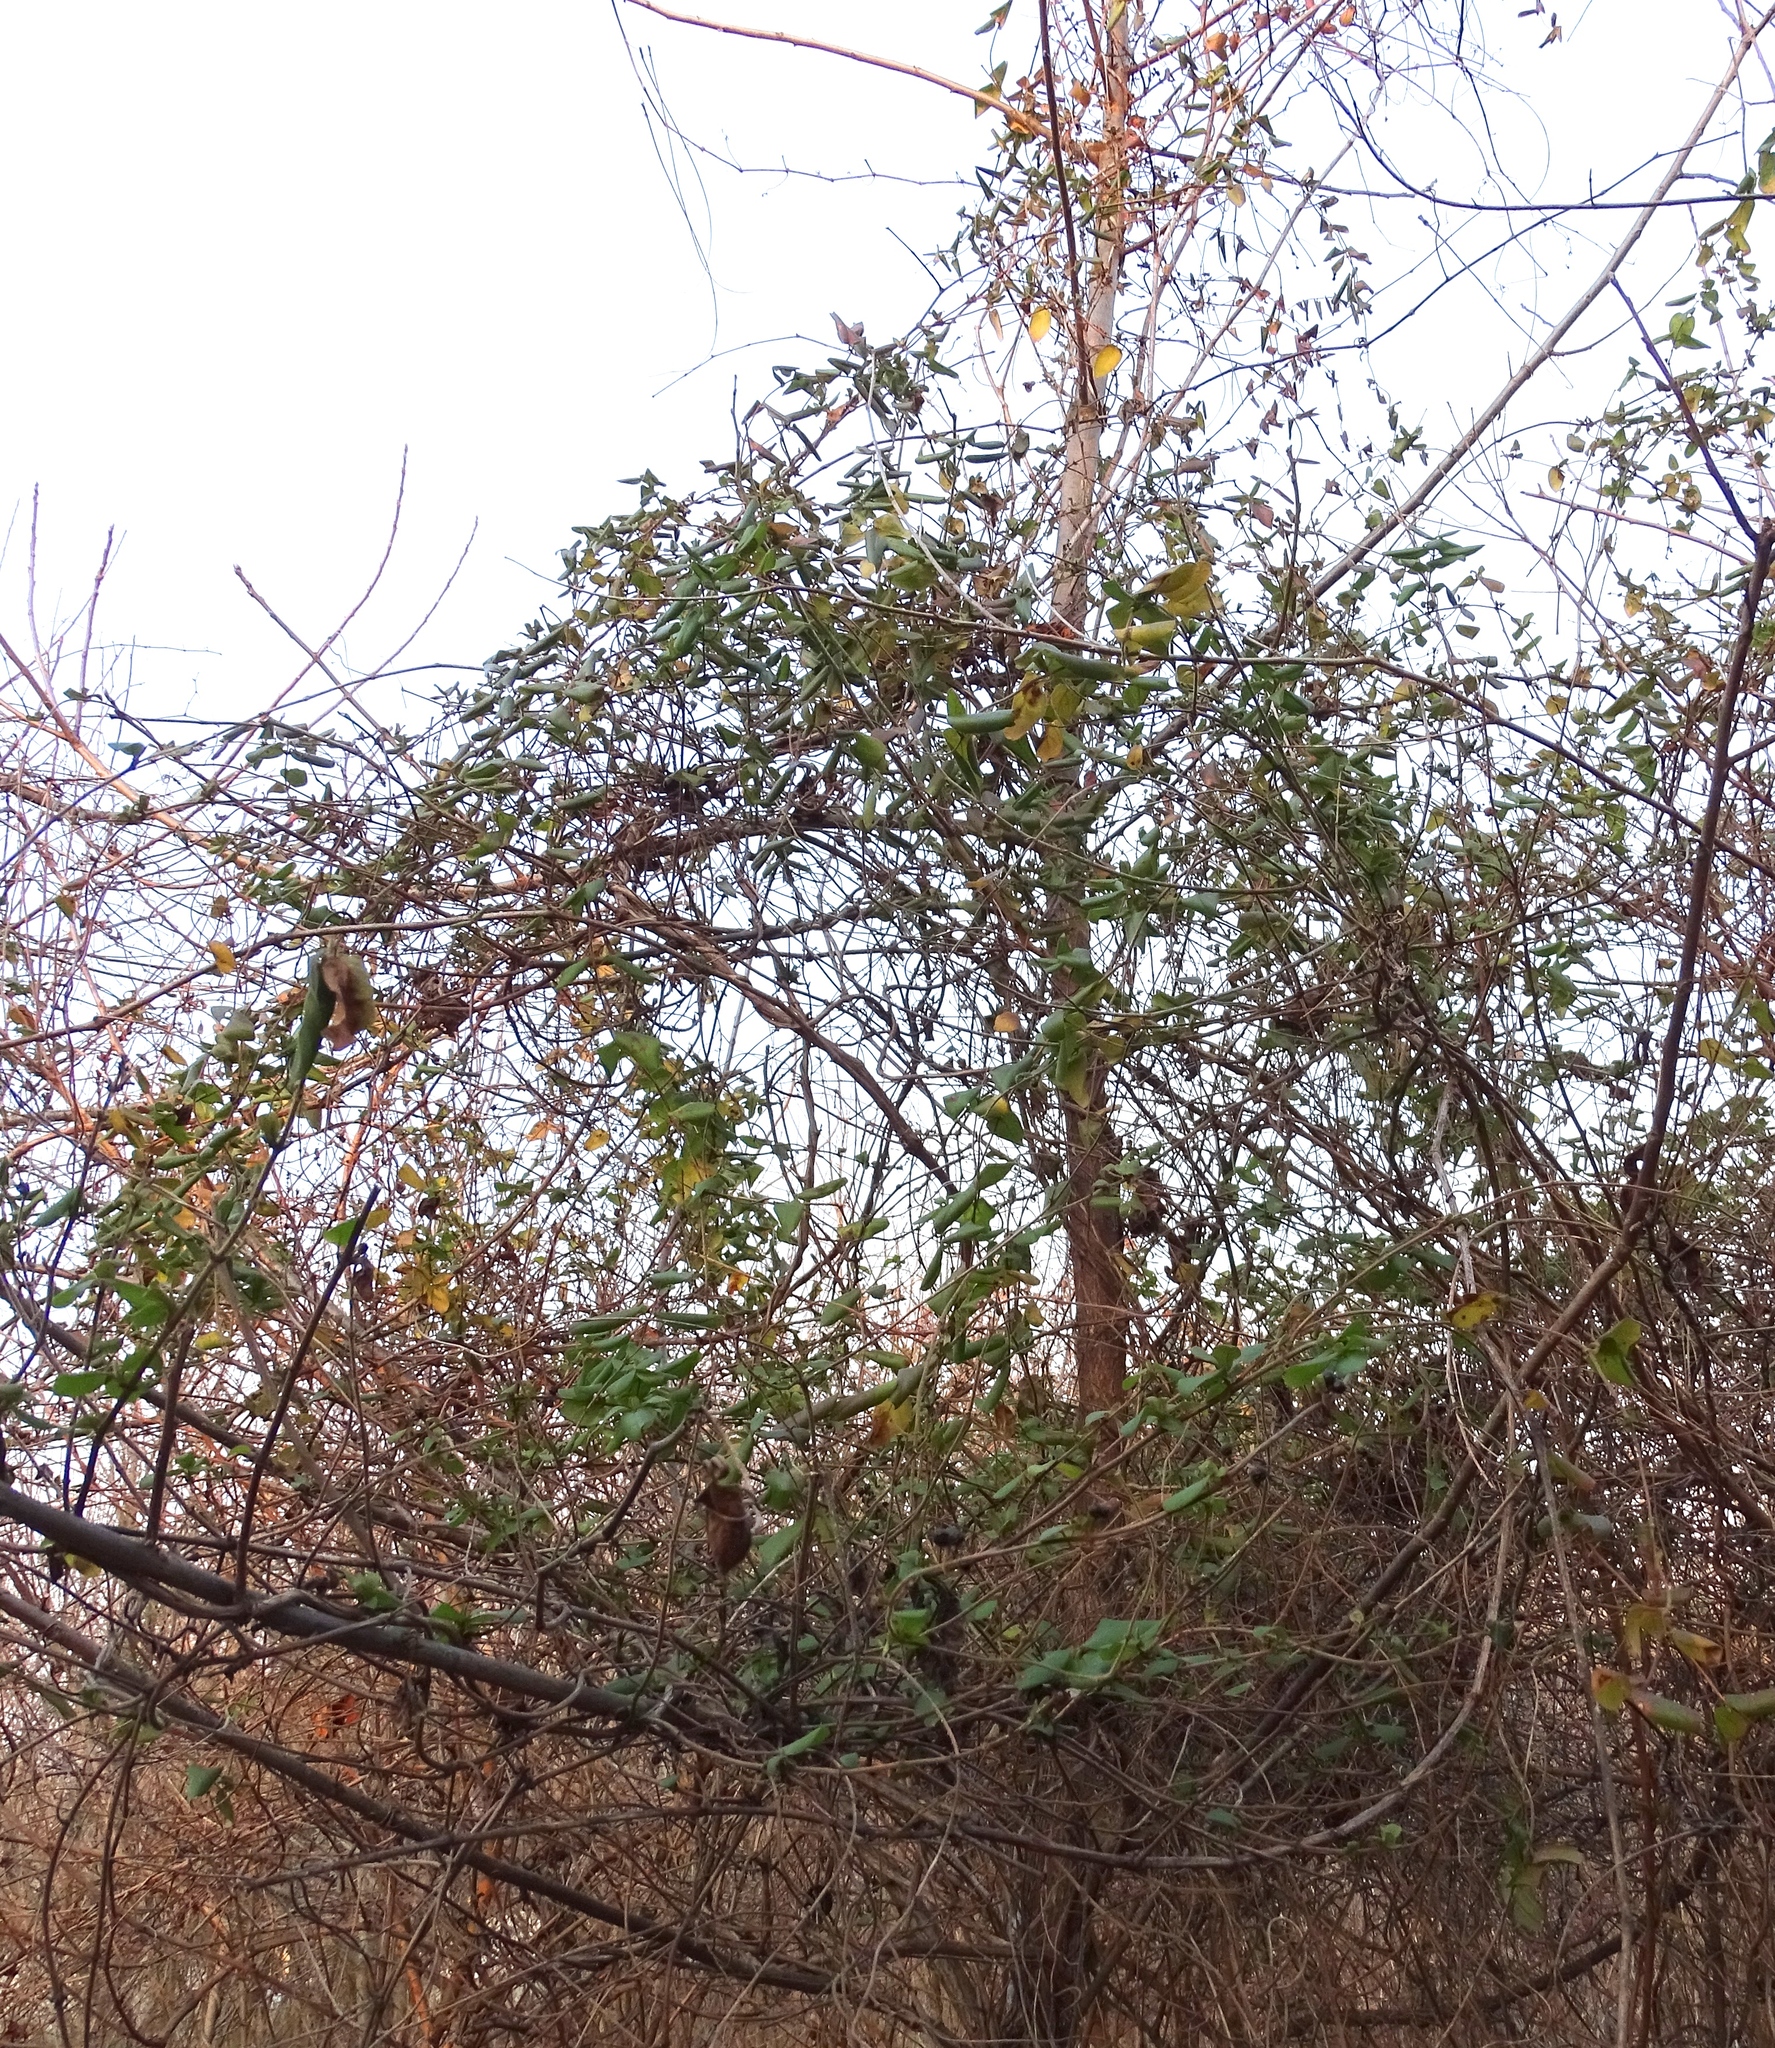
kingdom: Plantae
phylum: Tracheophyta
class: Magnoliopsida
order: Dipsacales
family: Caprifoliaceae
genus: Lonicera
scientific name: Lonicera japonica
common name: Japanese honeysuckle
